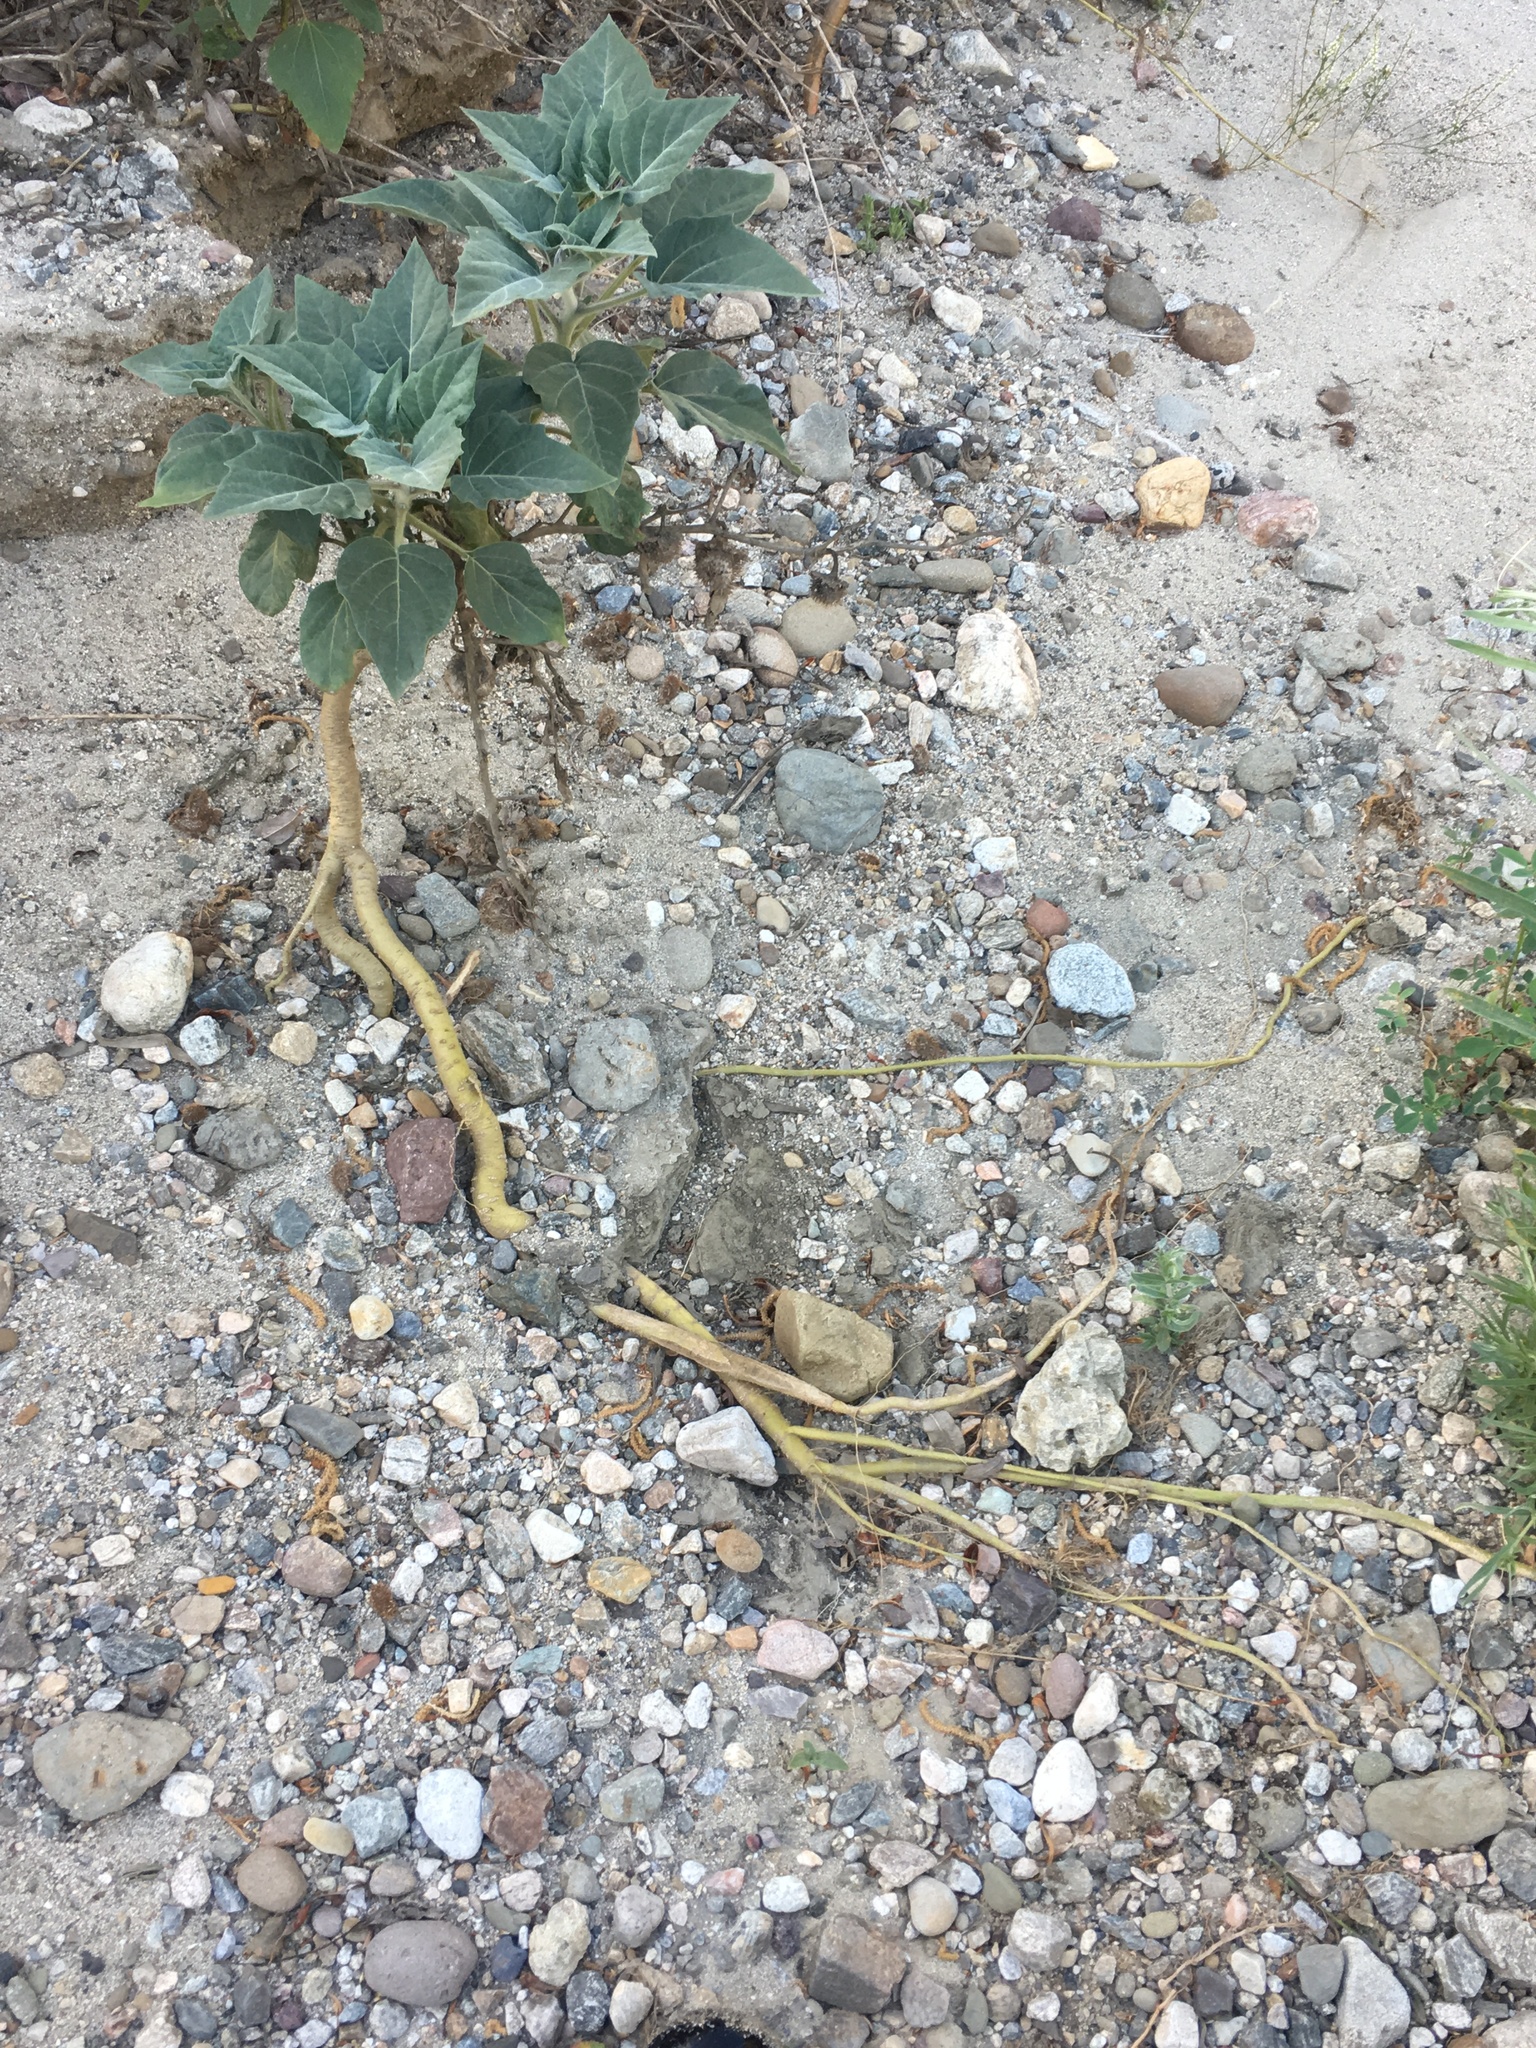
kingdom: Plantae
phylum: Tracheophyta
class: Magnoliopsida
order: Solanales
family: Solanaceae
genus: Datura
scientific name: Datura wrightii
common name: Sacred thorn-apple
